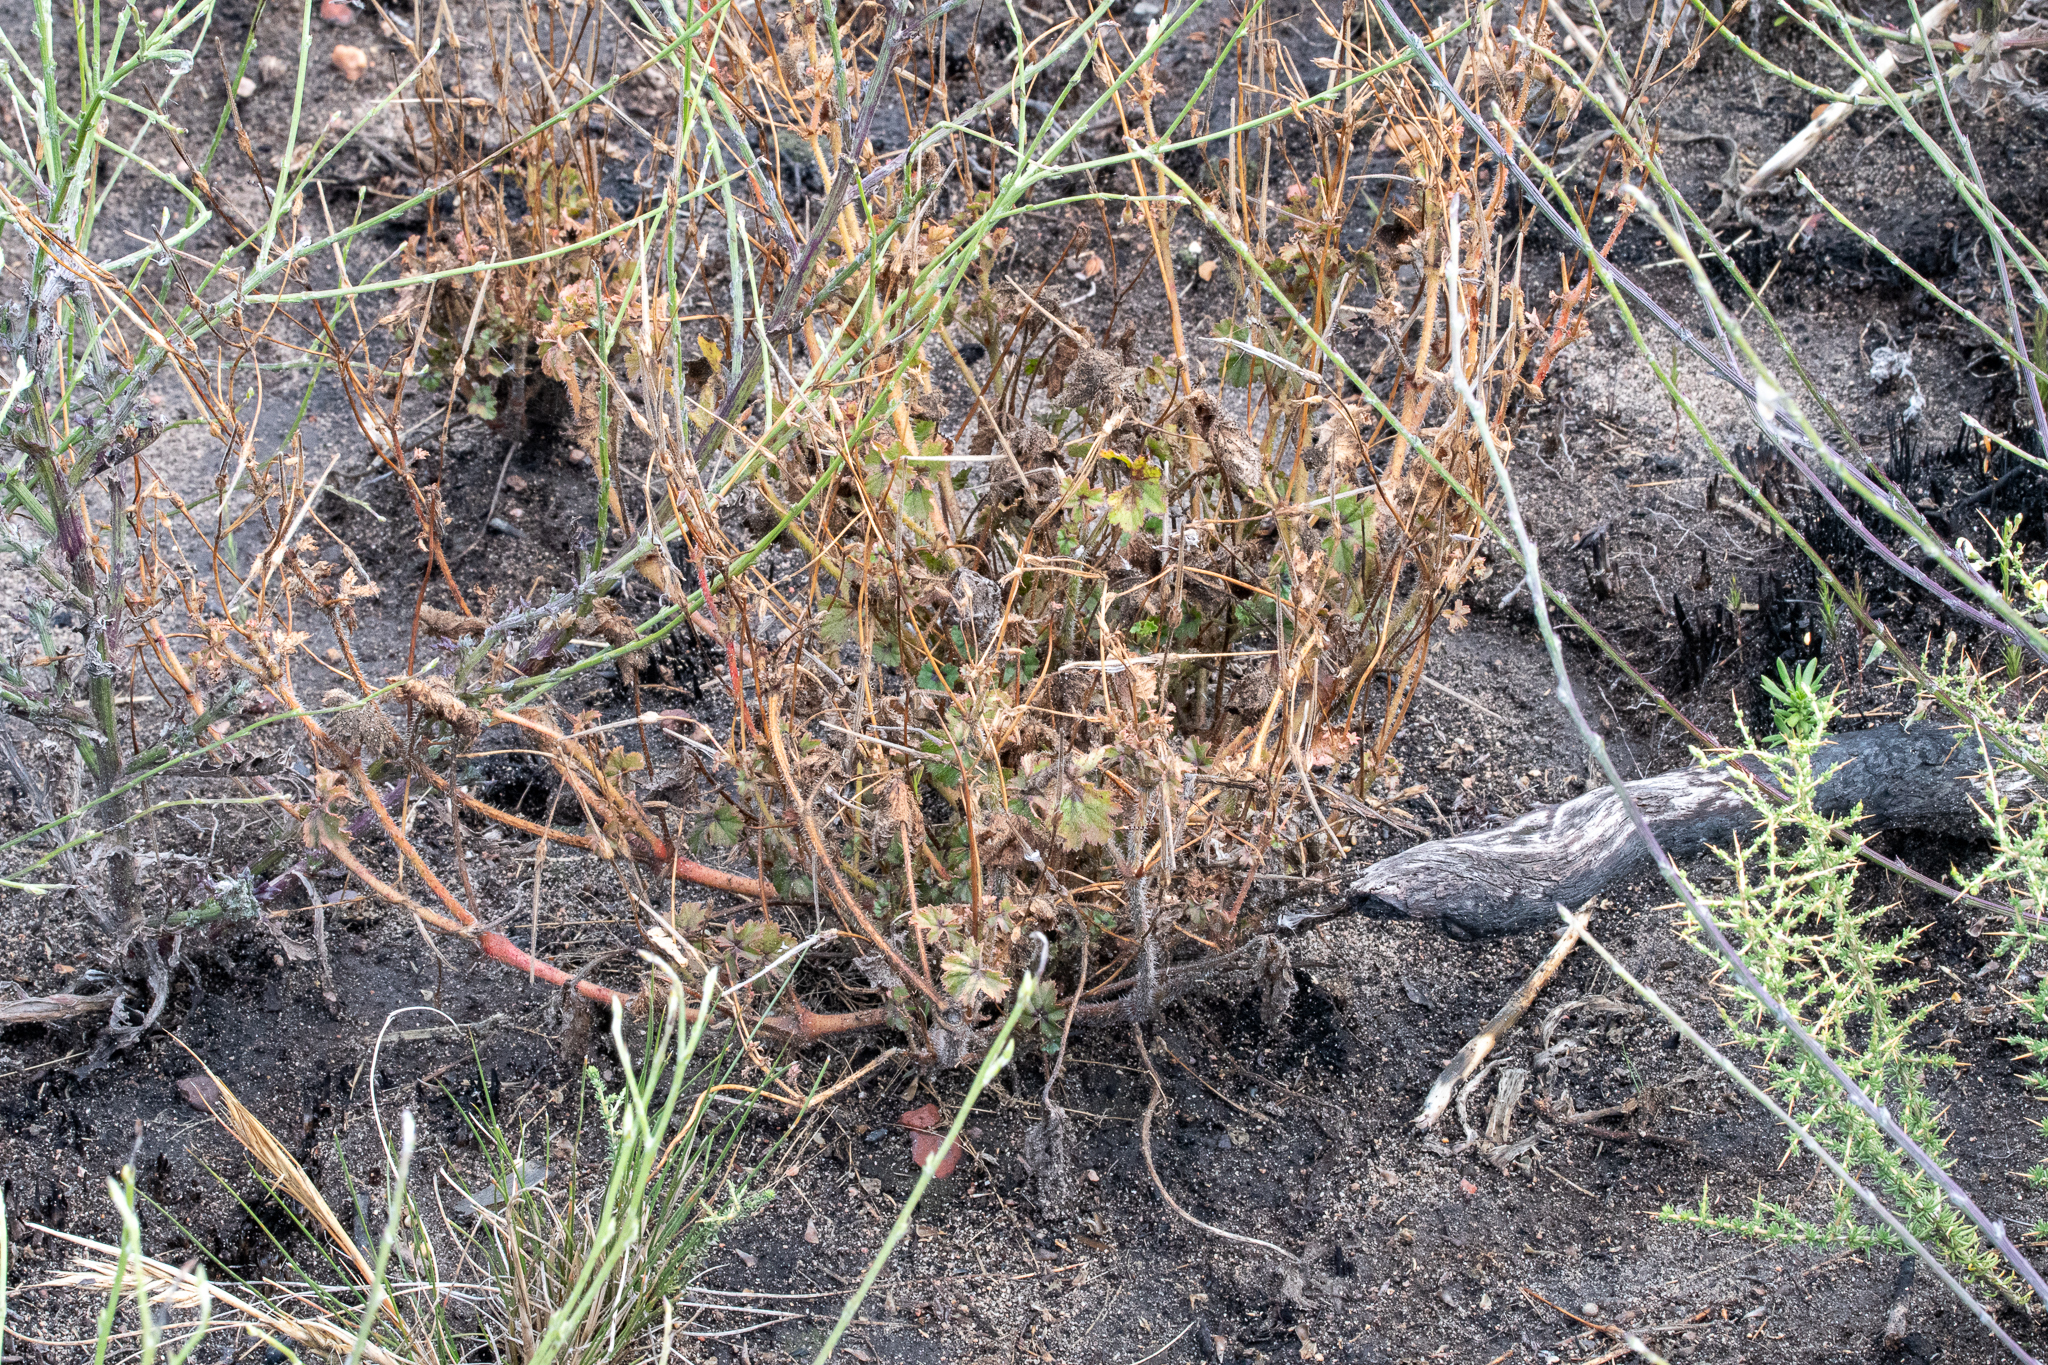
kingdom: Plantae
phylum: Tracheophyta
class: Magnoliopsida
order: Geraniales
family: Geraniaceae
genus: Pelargonium
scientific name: Pelargonium elongatum
